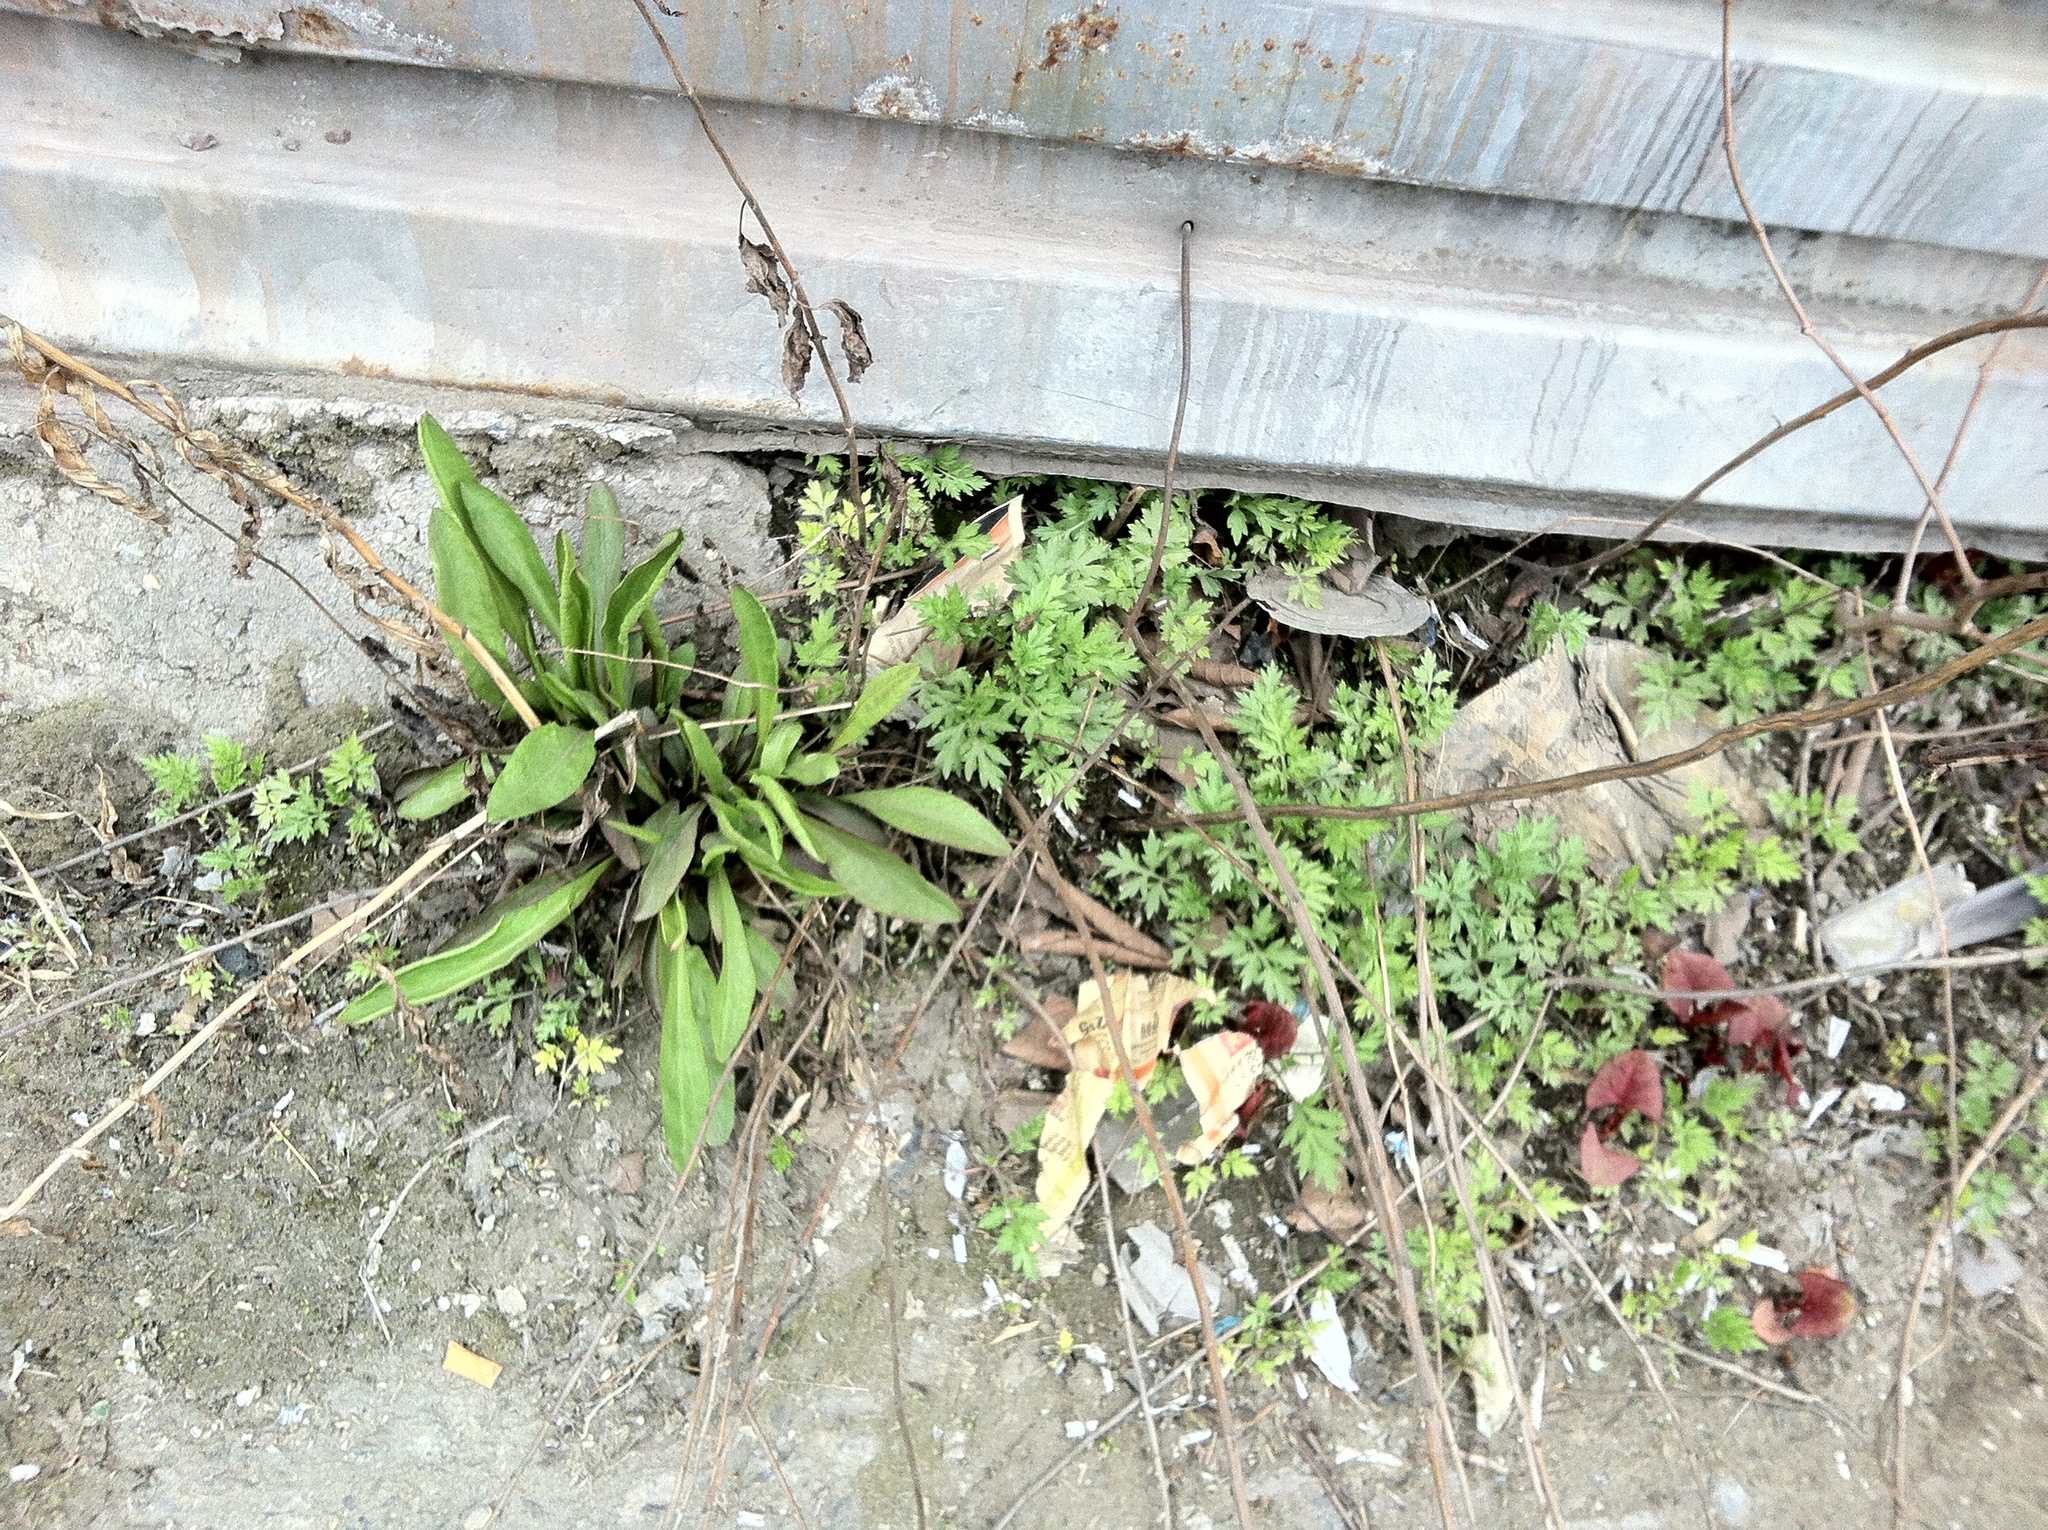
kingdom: Plantae
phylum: Tracheophyta
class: Magnoliopsida
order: Asterales
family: Asteraceae
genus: Solidago
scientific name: Solidago sempervirens
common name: Salt-marsh goldenrod
